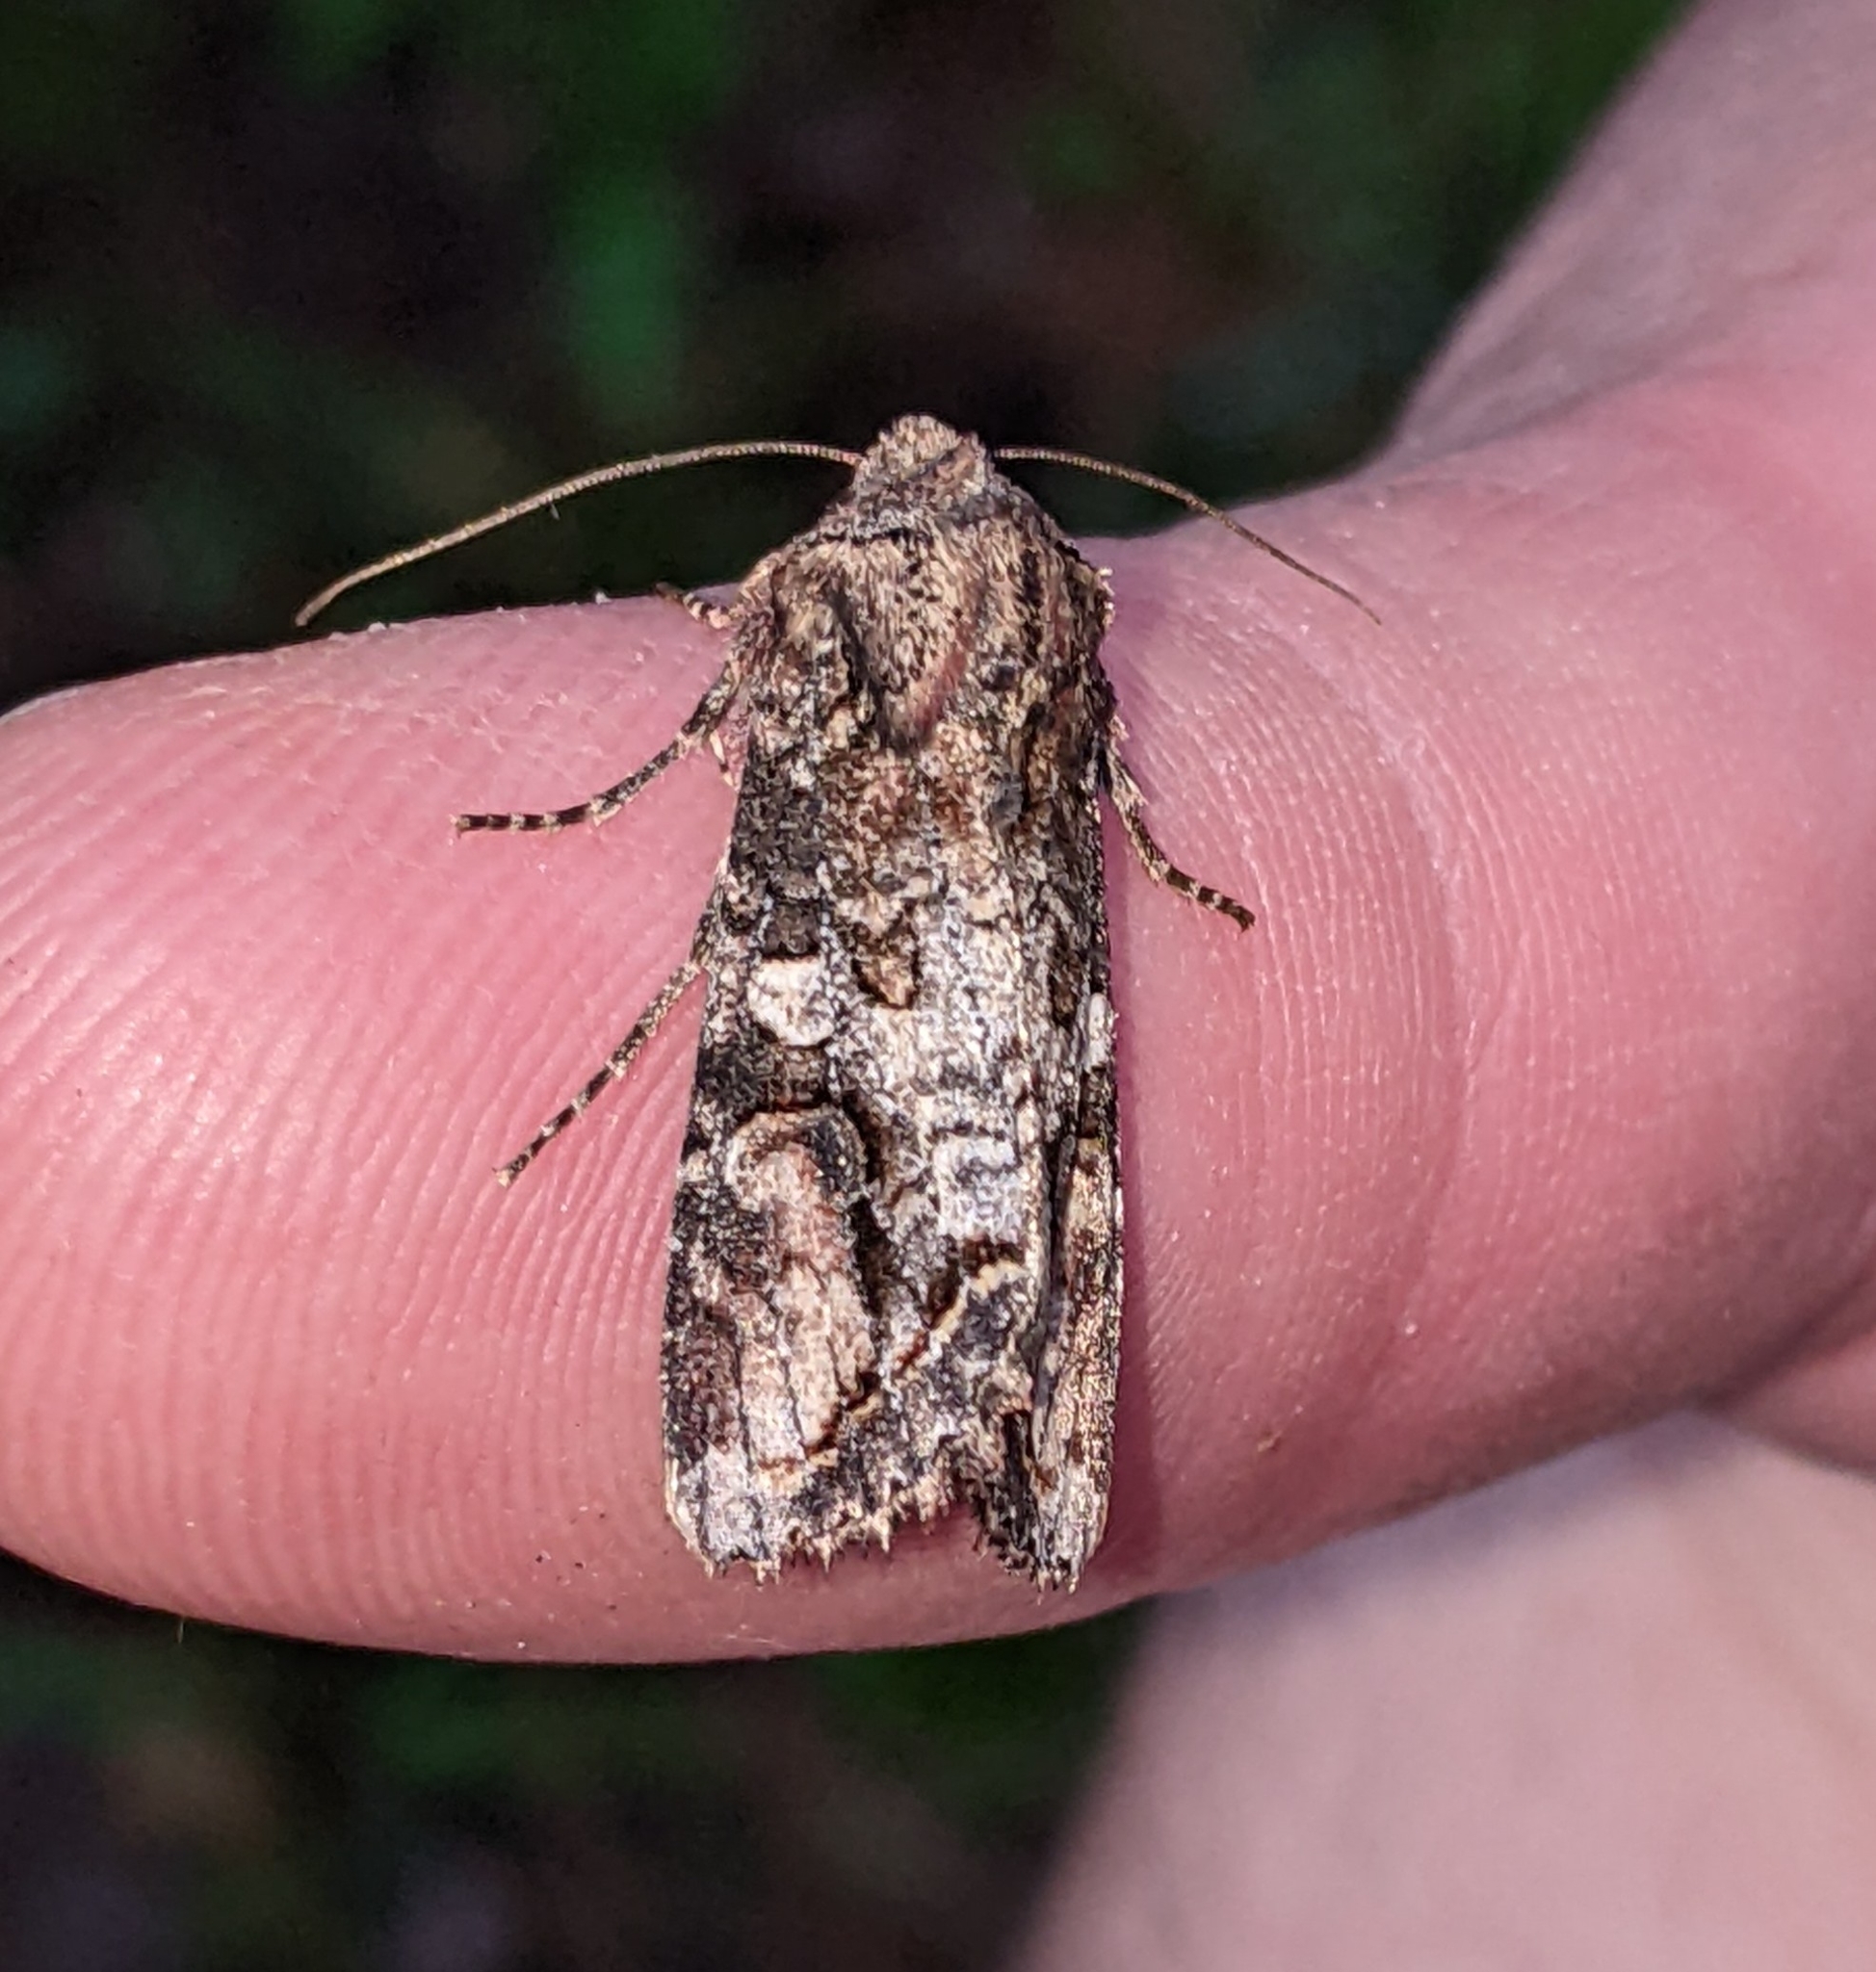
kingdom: Animalia
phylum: Arthropoda
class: Insecta
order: Lepidoptera
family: Noctuidae
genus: Egira
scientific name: Egira perlubens
